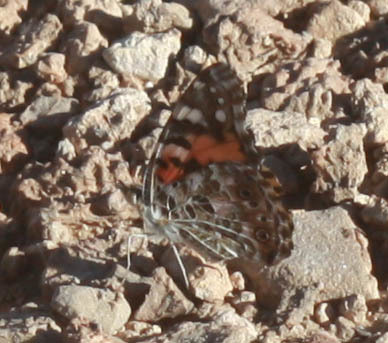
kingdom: Animalia
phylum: Arthropoda
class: Insecta
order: Lepidoptera
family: Nymphalidae
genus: Vanessa
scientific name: Vanessa cardui
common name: Painted lady
